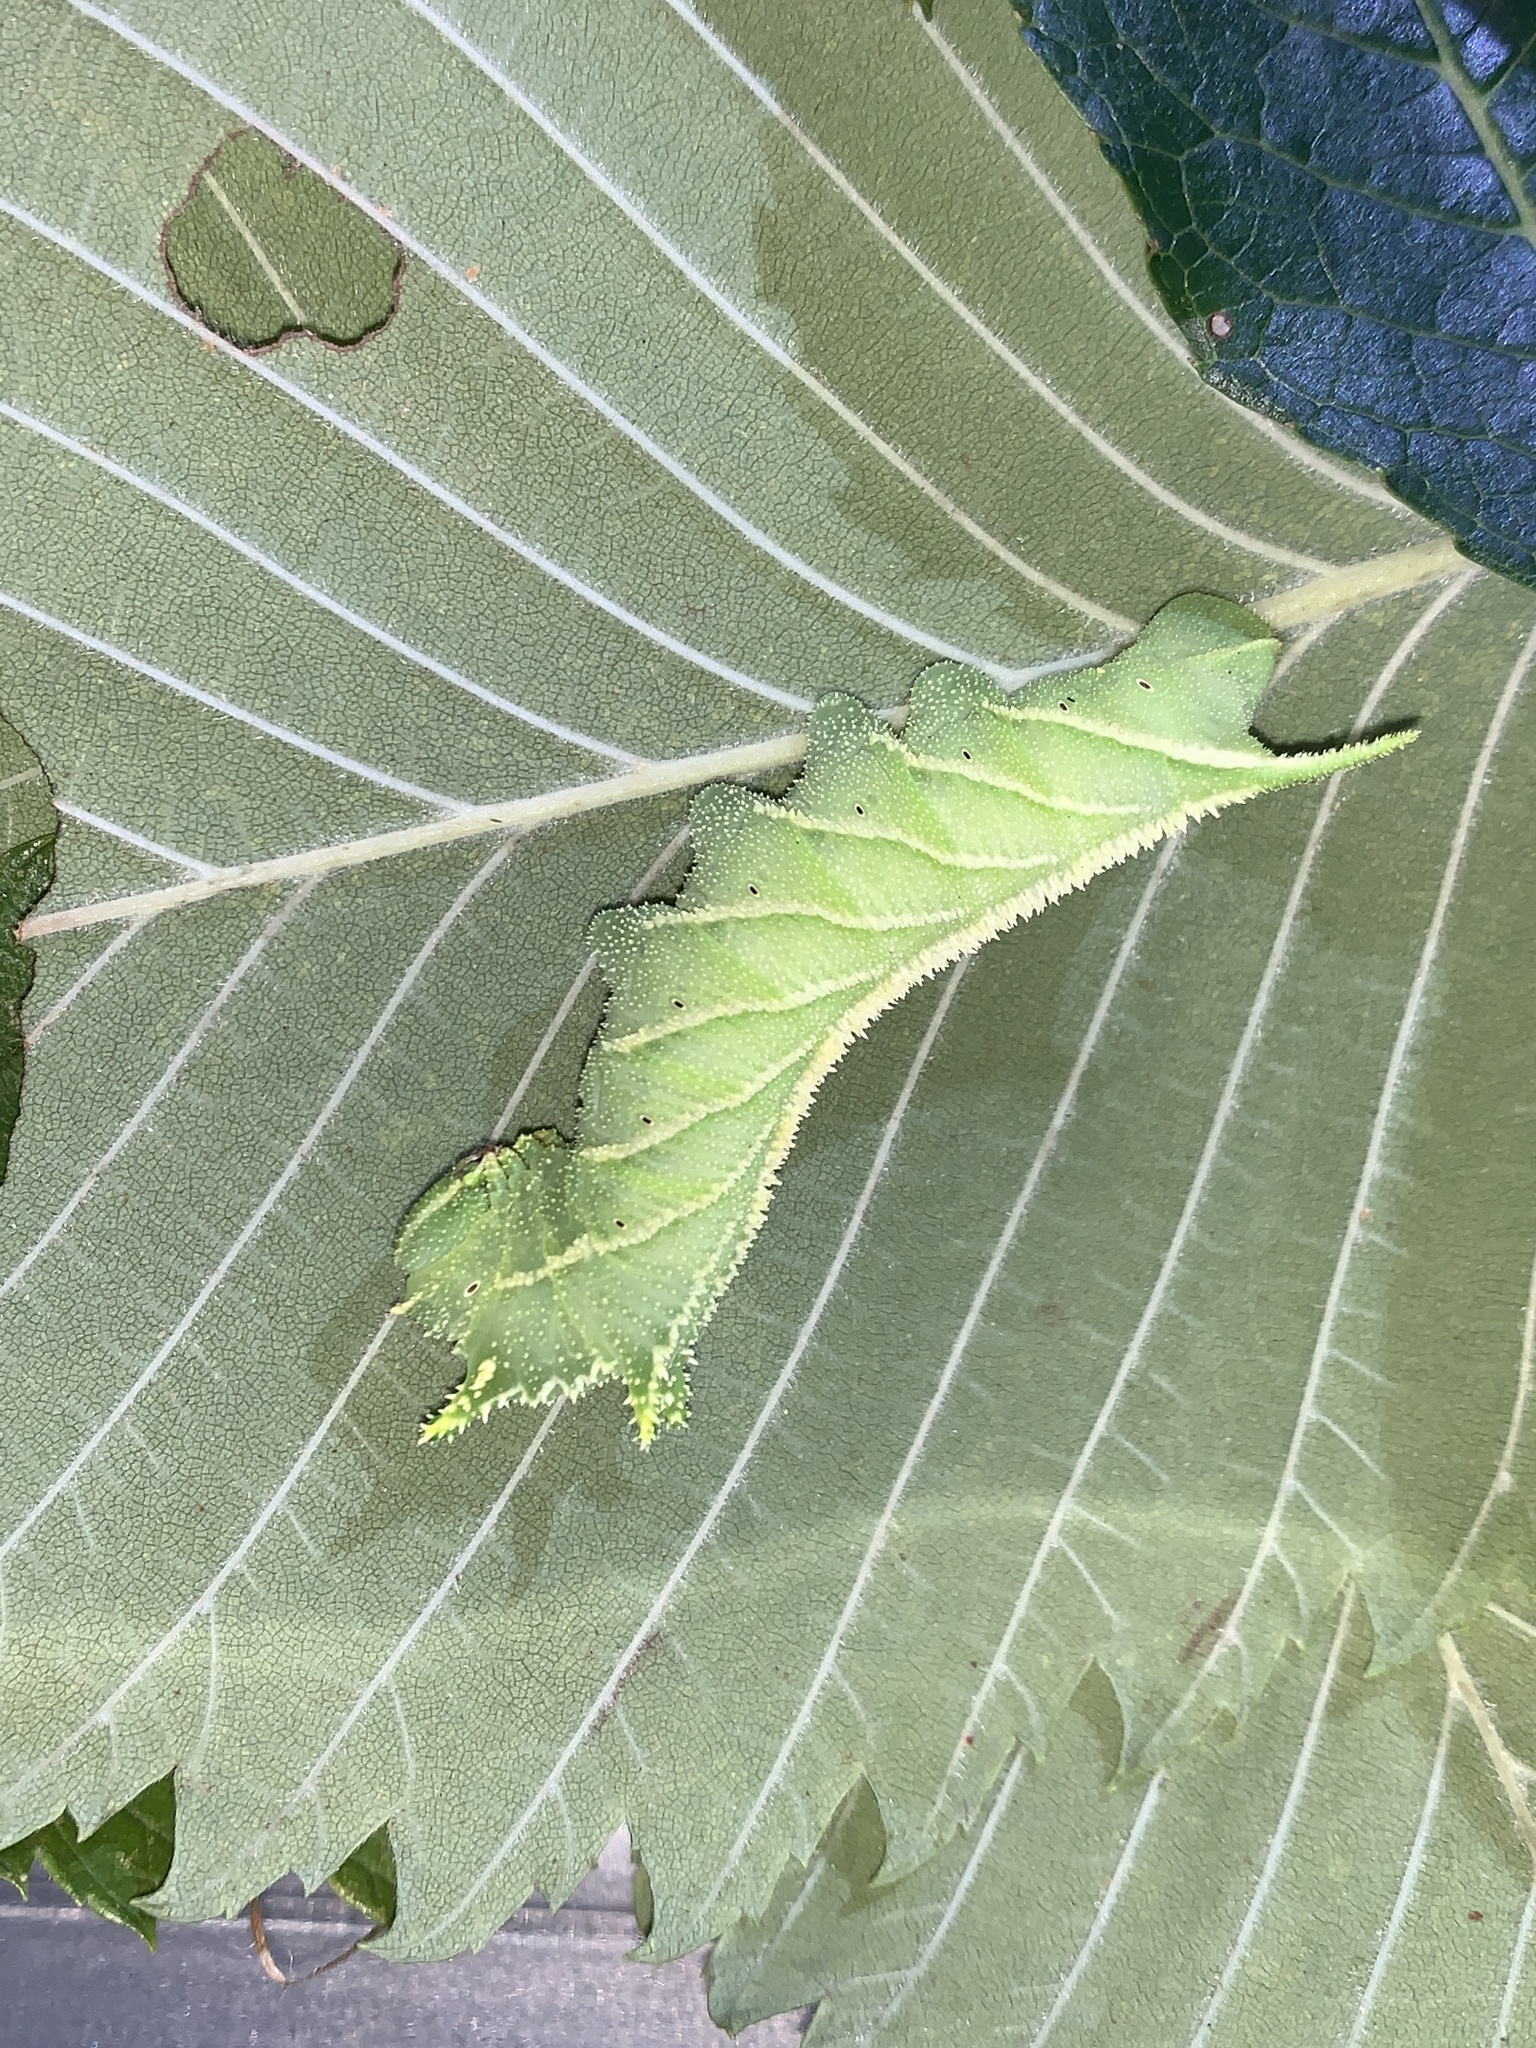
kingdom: Animalia
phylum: Arthropoda
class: Insecta
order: Lepidoptera
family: Sphingidae
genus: Ceratomia
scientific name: Ceratomia amyntor
